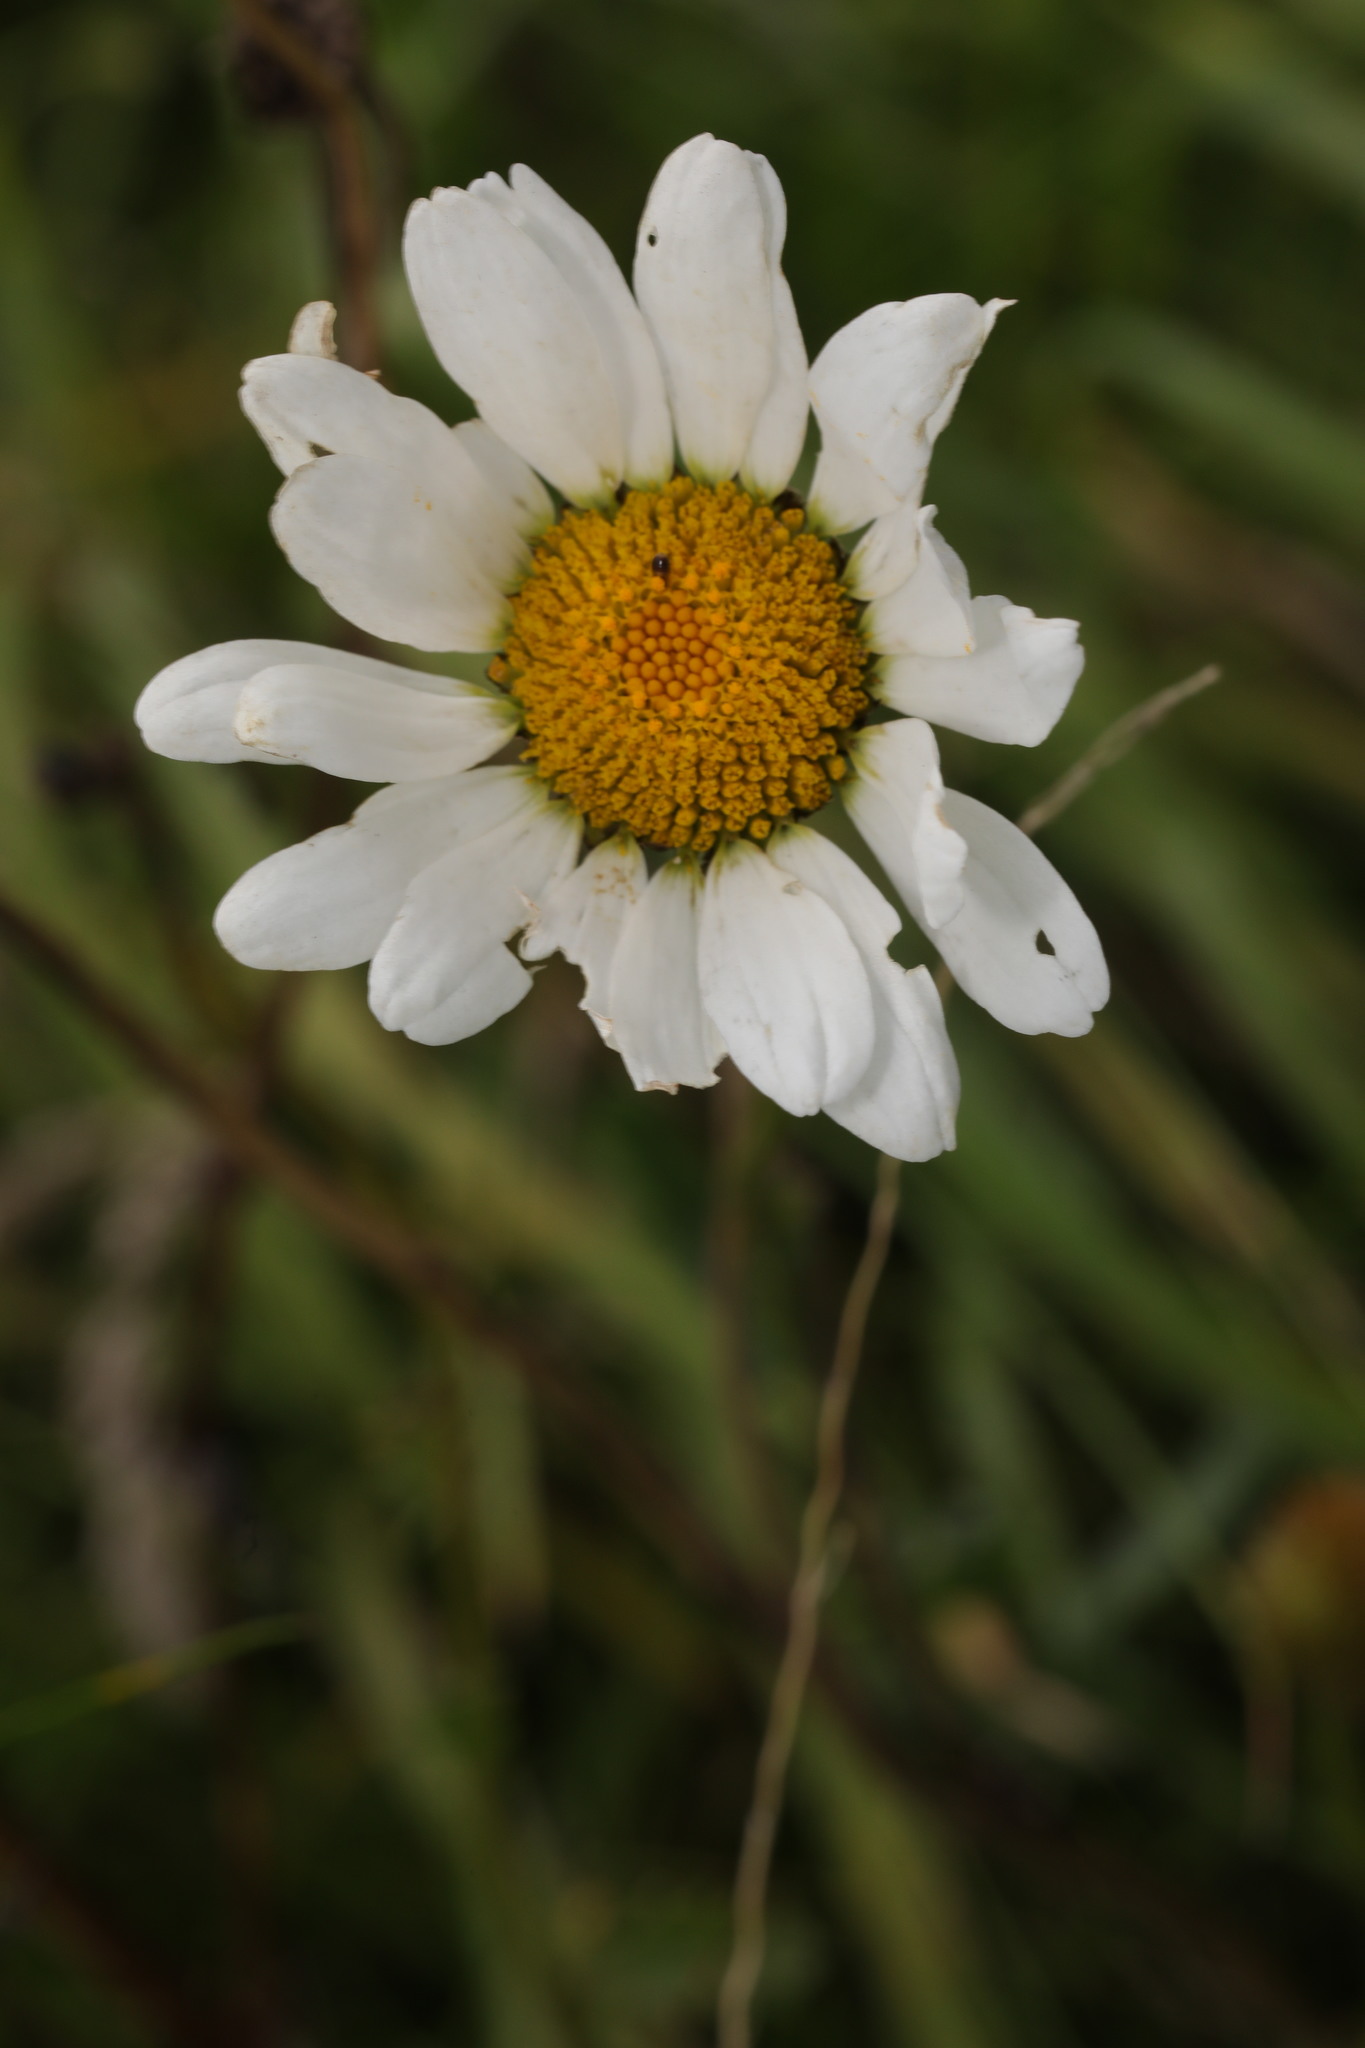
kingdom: Plantae
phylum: Tracheophyta
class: Magnoliopsida
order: Asterales
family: Asteraceae
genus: Leucanthemum
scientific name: Leucanthemum vulgare
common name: Oxeye daisy
